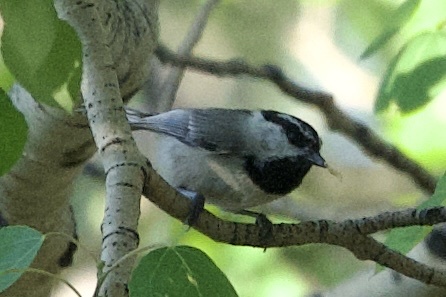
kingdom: Animalia
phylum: Chordata
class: Aves
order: Passeriformes
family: Paridae
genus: Poecile
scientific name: Poecile gambeli
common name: Mountain chickadee
